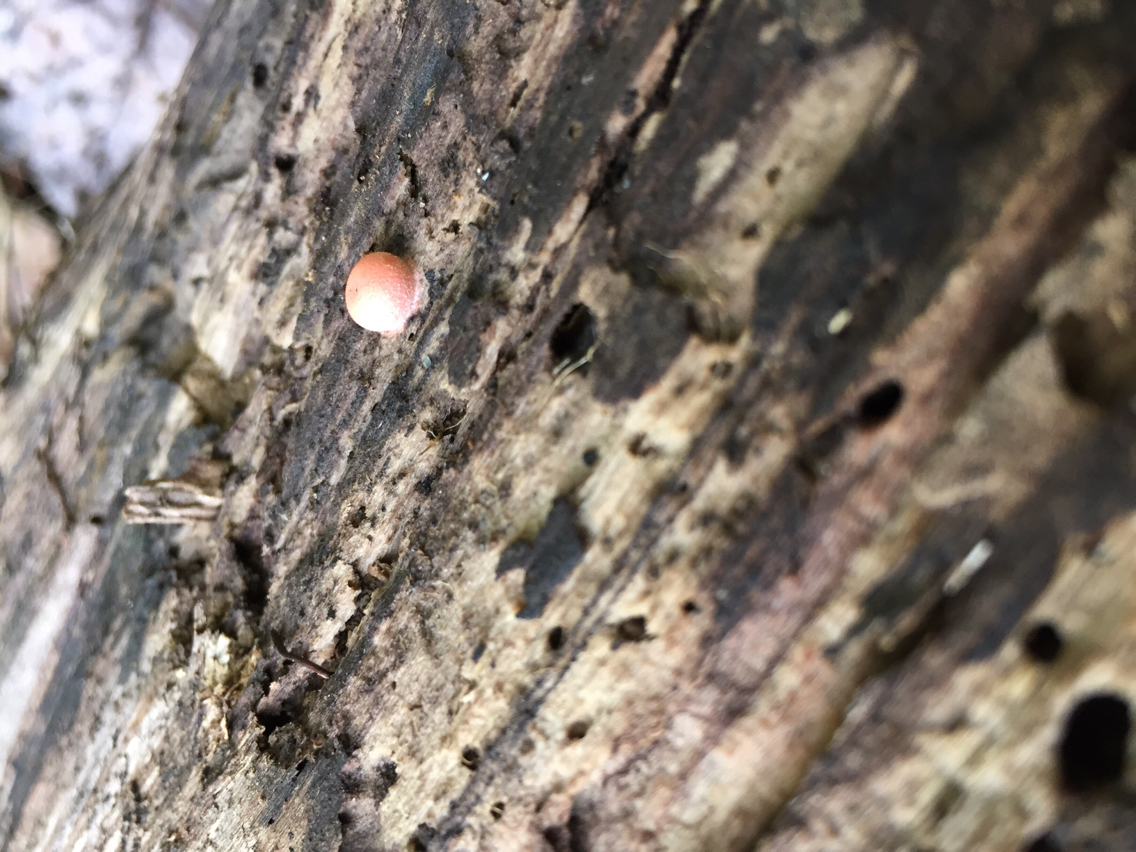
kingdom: Protozoa
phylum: Mycetozoa
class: Myxomycetes
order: Cribrariales
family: Tubiferaceae
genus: Lycogala
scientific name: Lycogala epidendrum
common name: Wolf's milk
